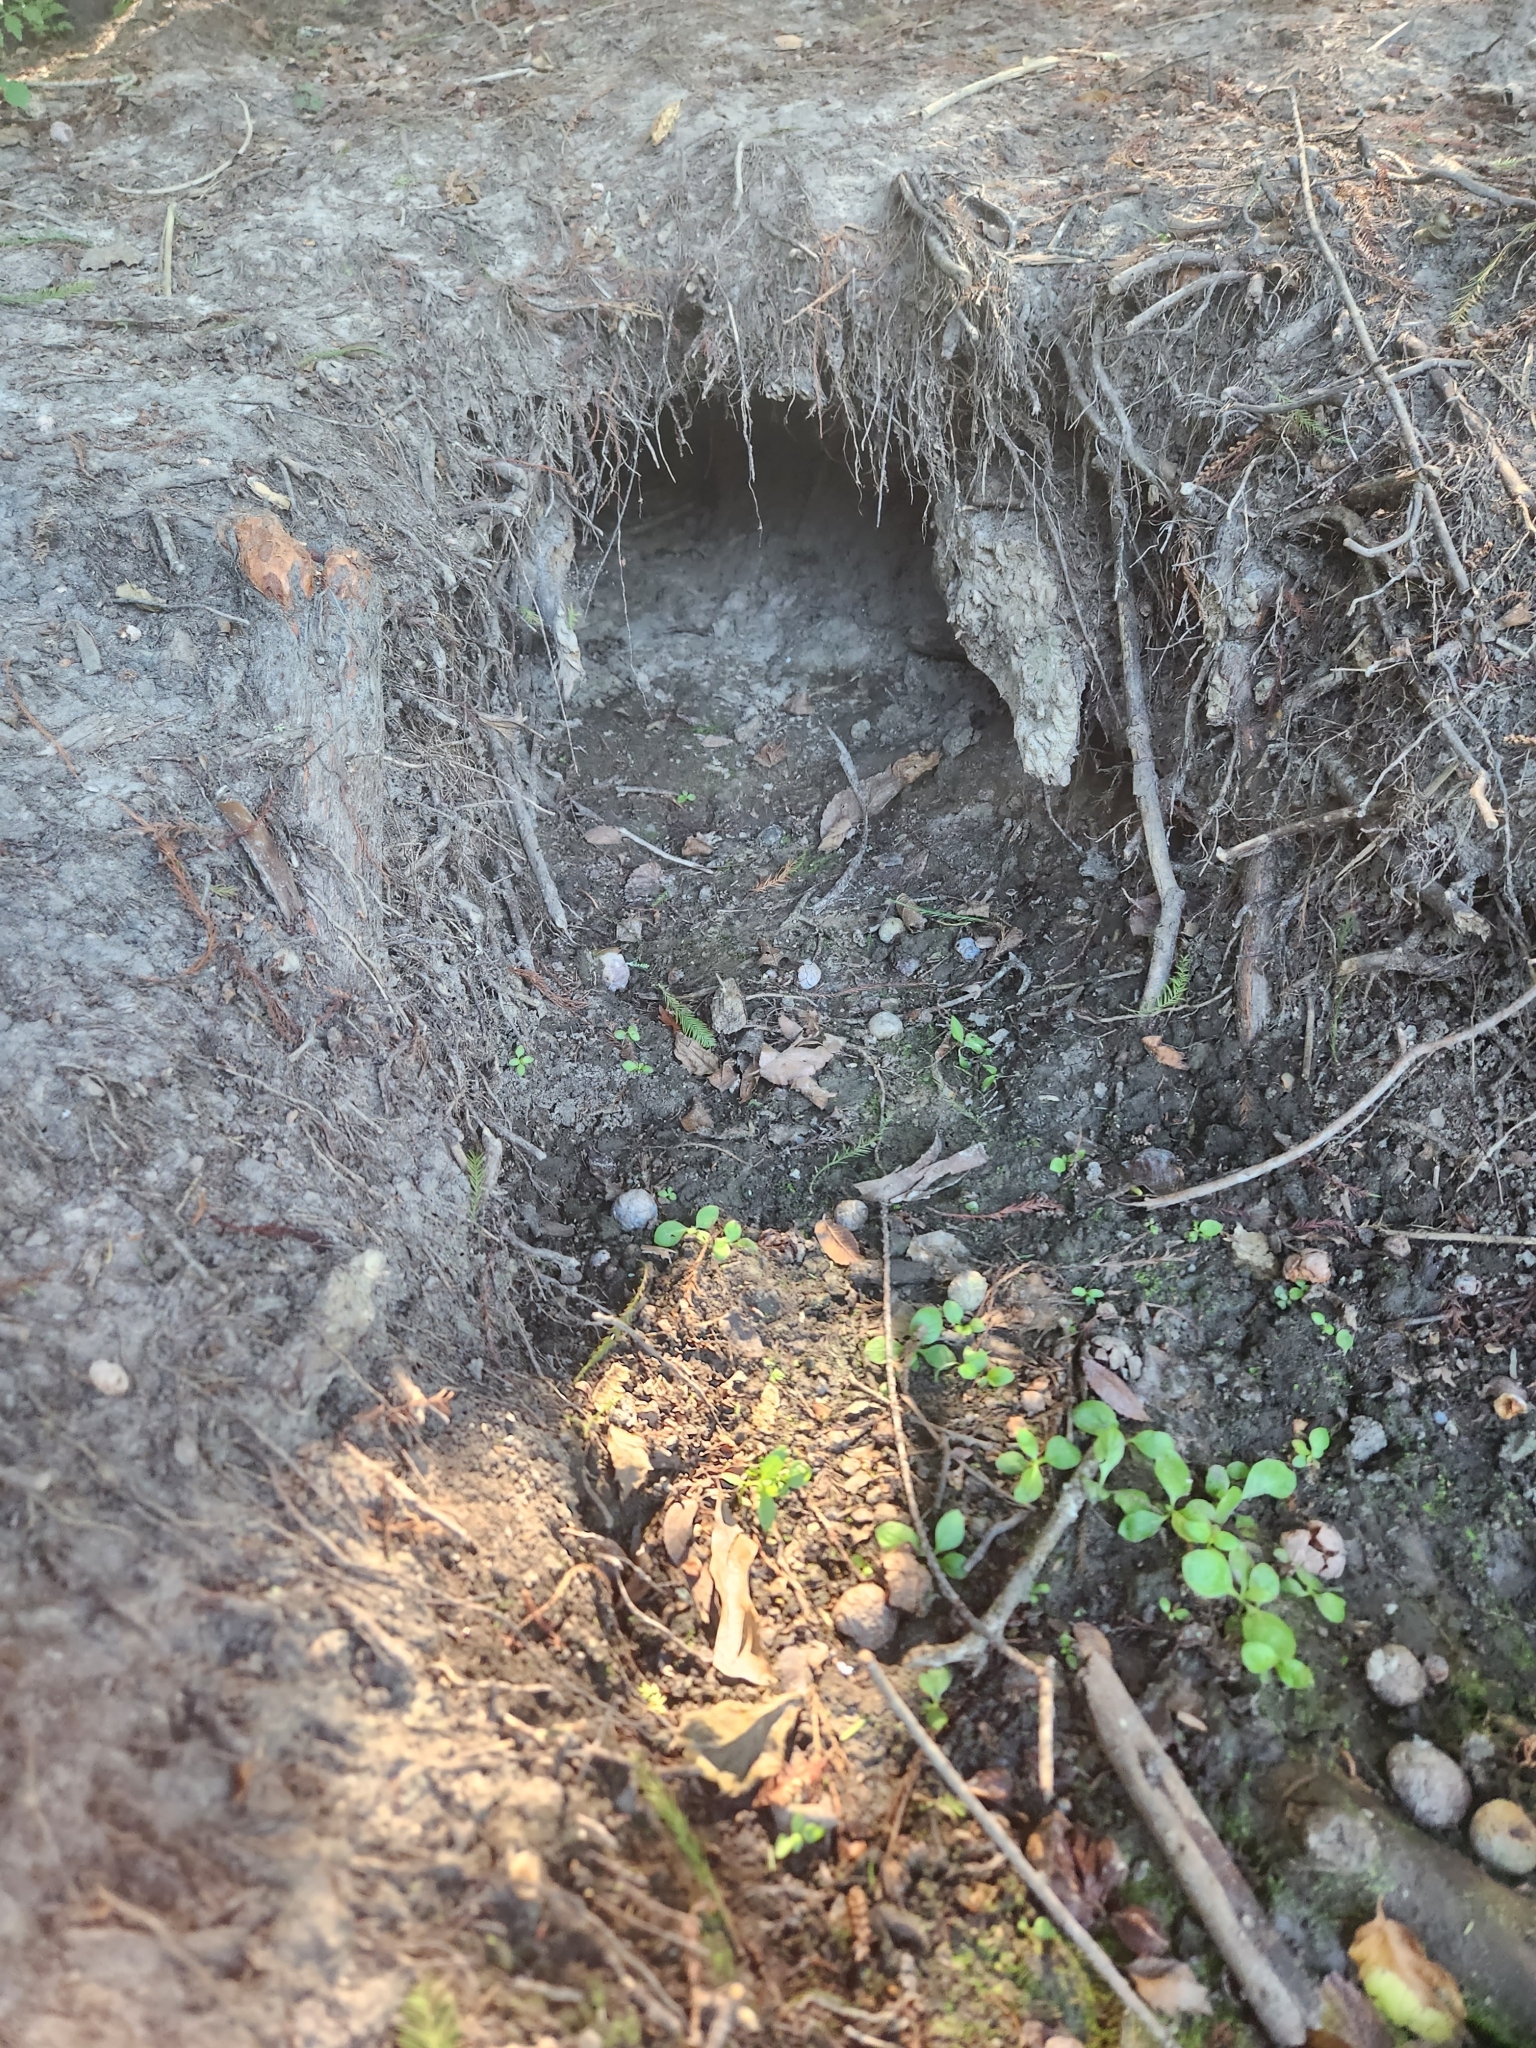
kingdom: Animalia
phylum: Chordata
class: Mammalia
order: Carnivora
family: Procyonidae
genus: Procyon
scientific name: Procyon lotor
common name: Raccoon
